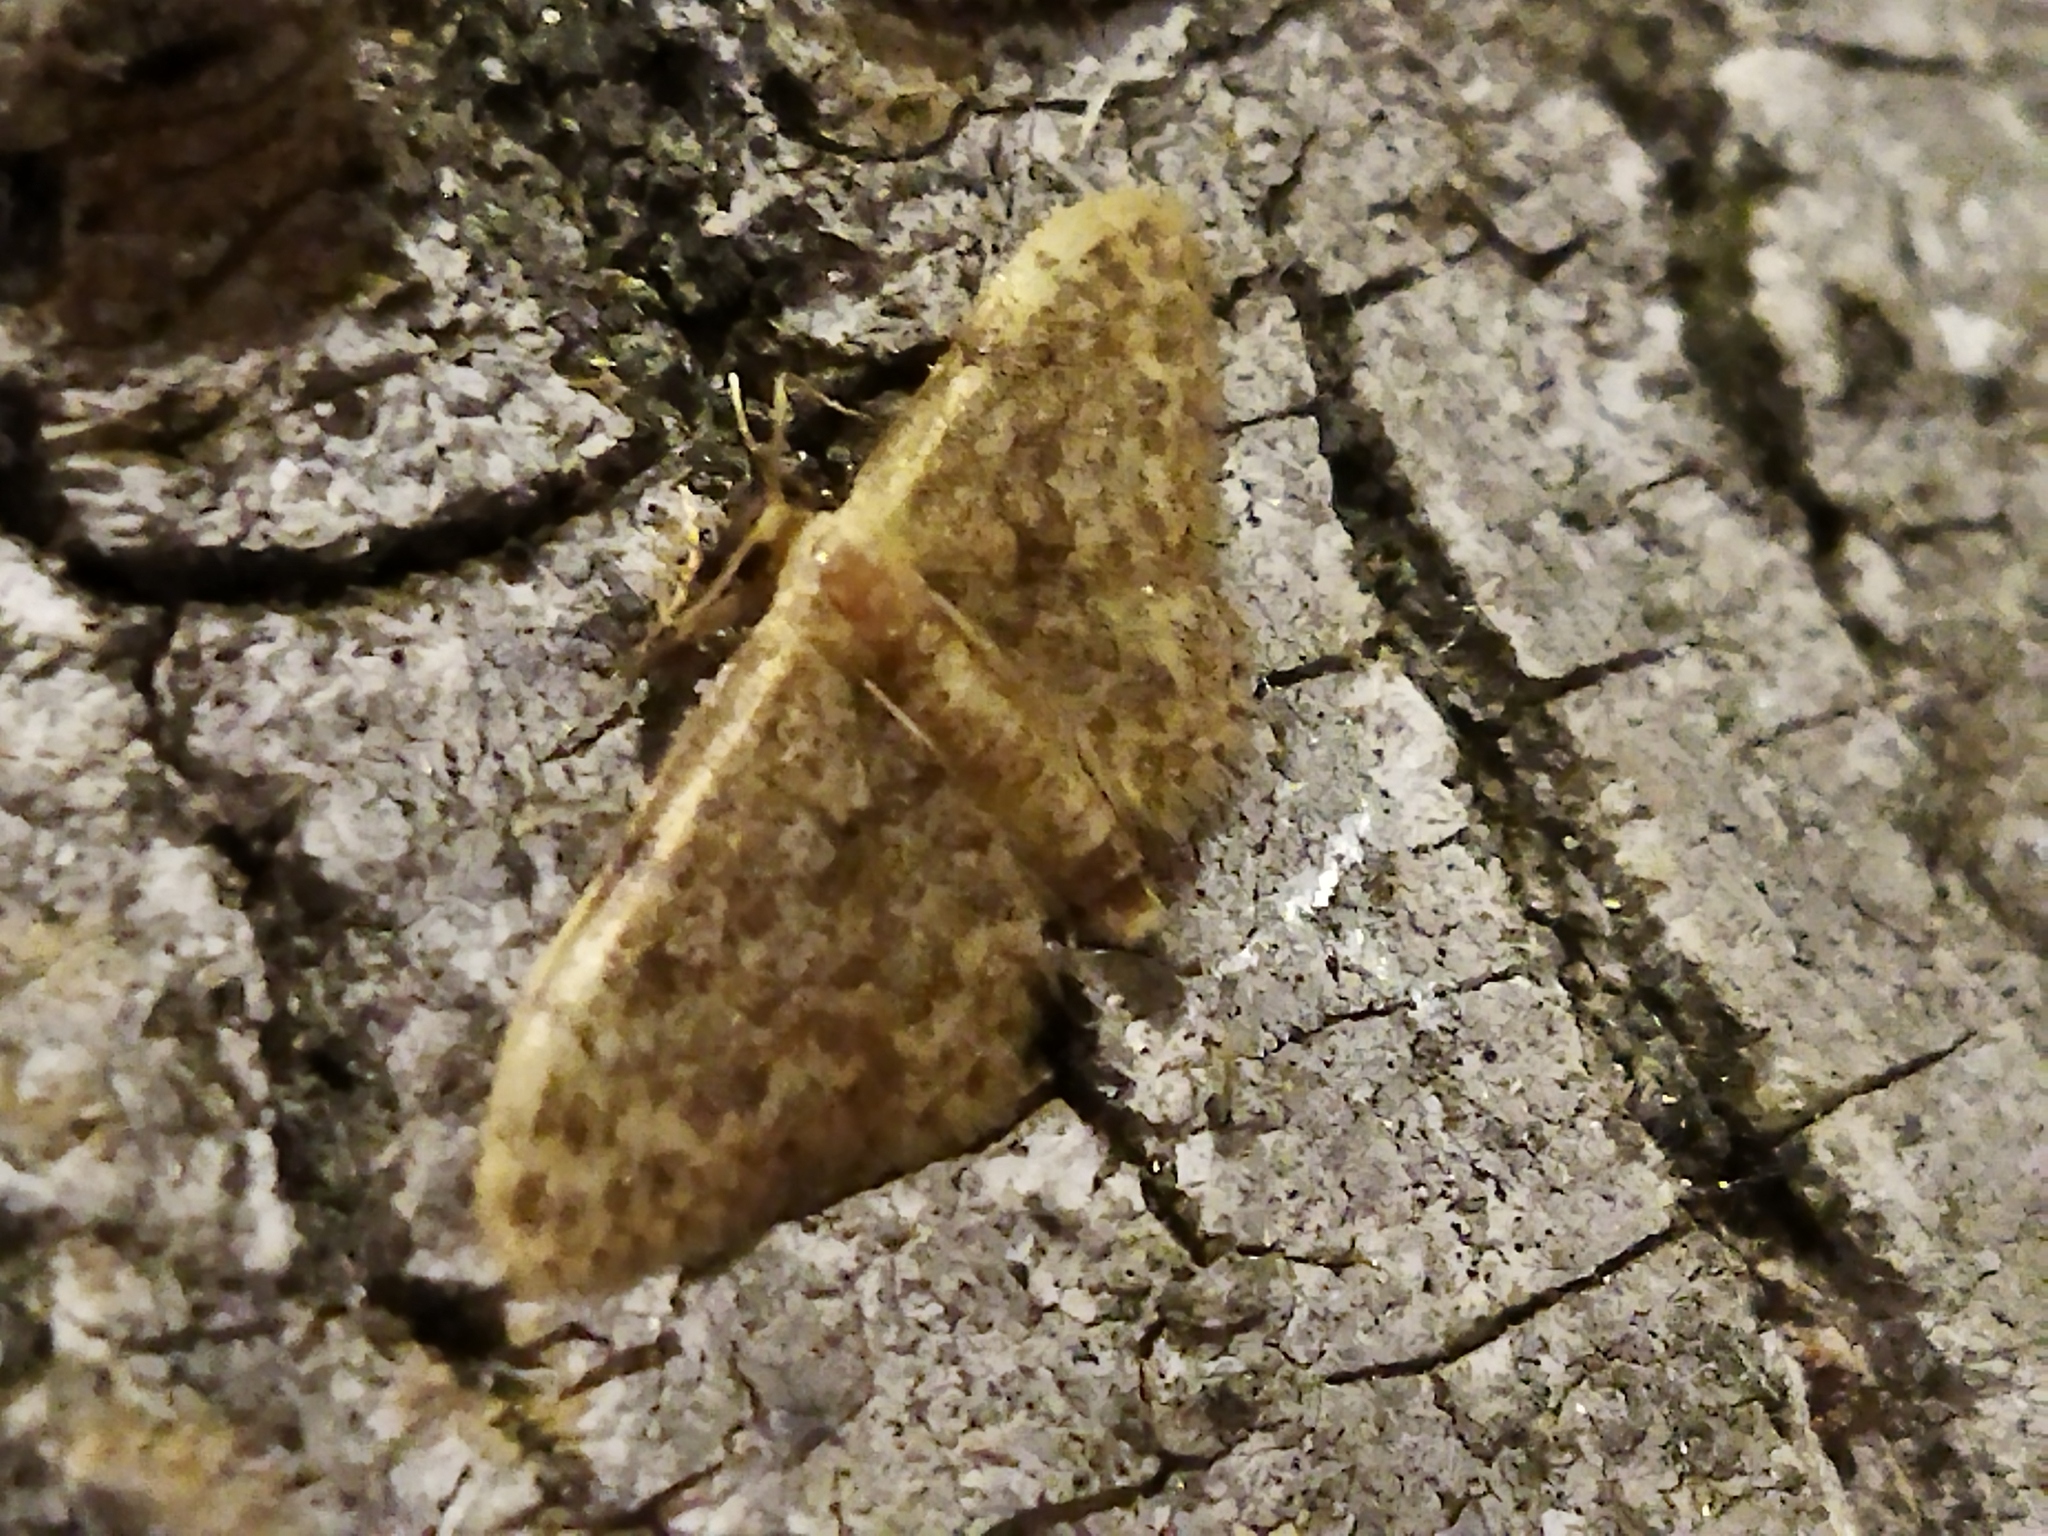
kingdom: Animalia
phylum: Arthropoda
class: Insecta
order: Lepidoptera
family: Geometridae
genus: Idaea
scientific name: Idaea inquinata
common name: Rusty wave
